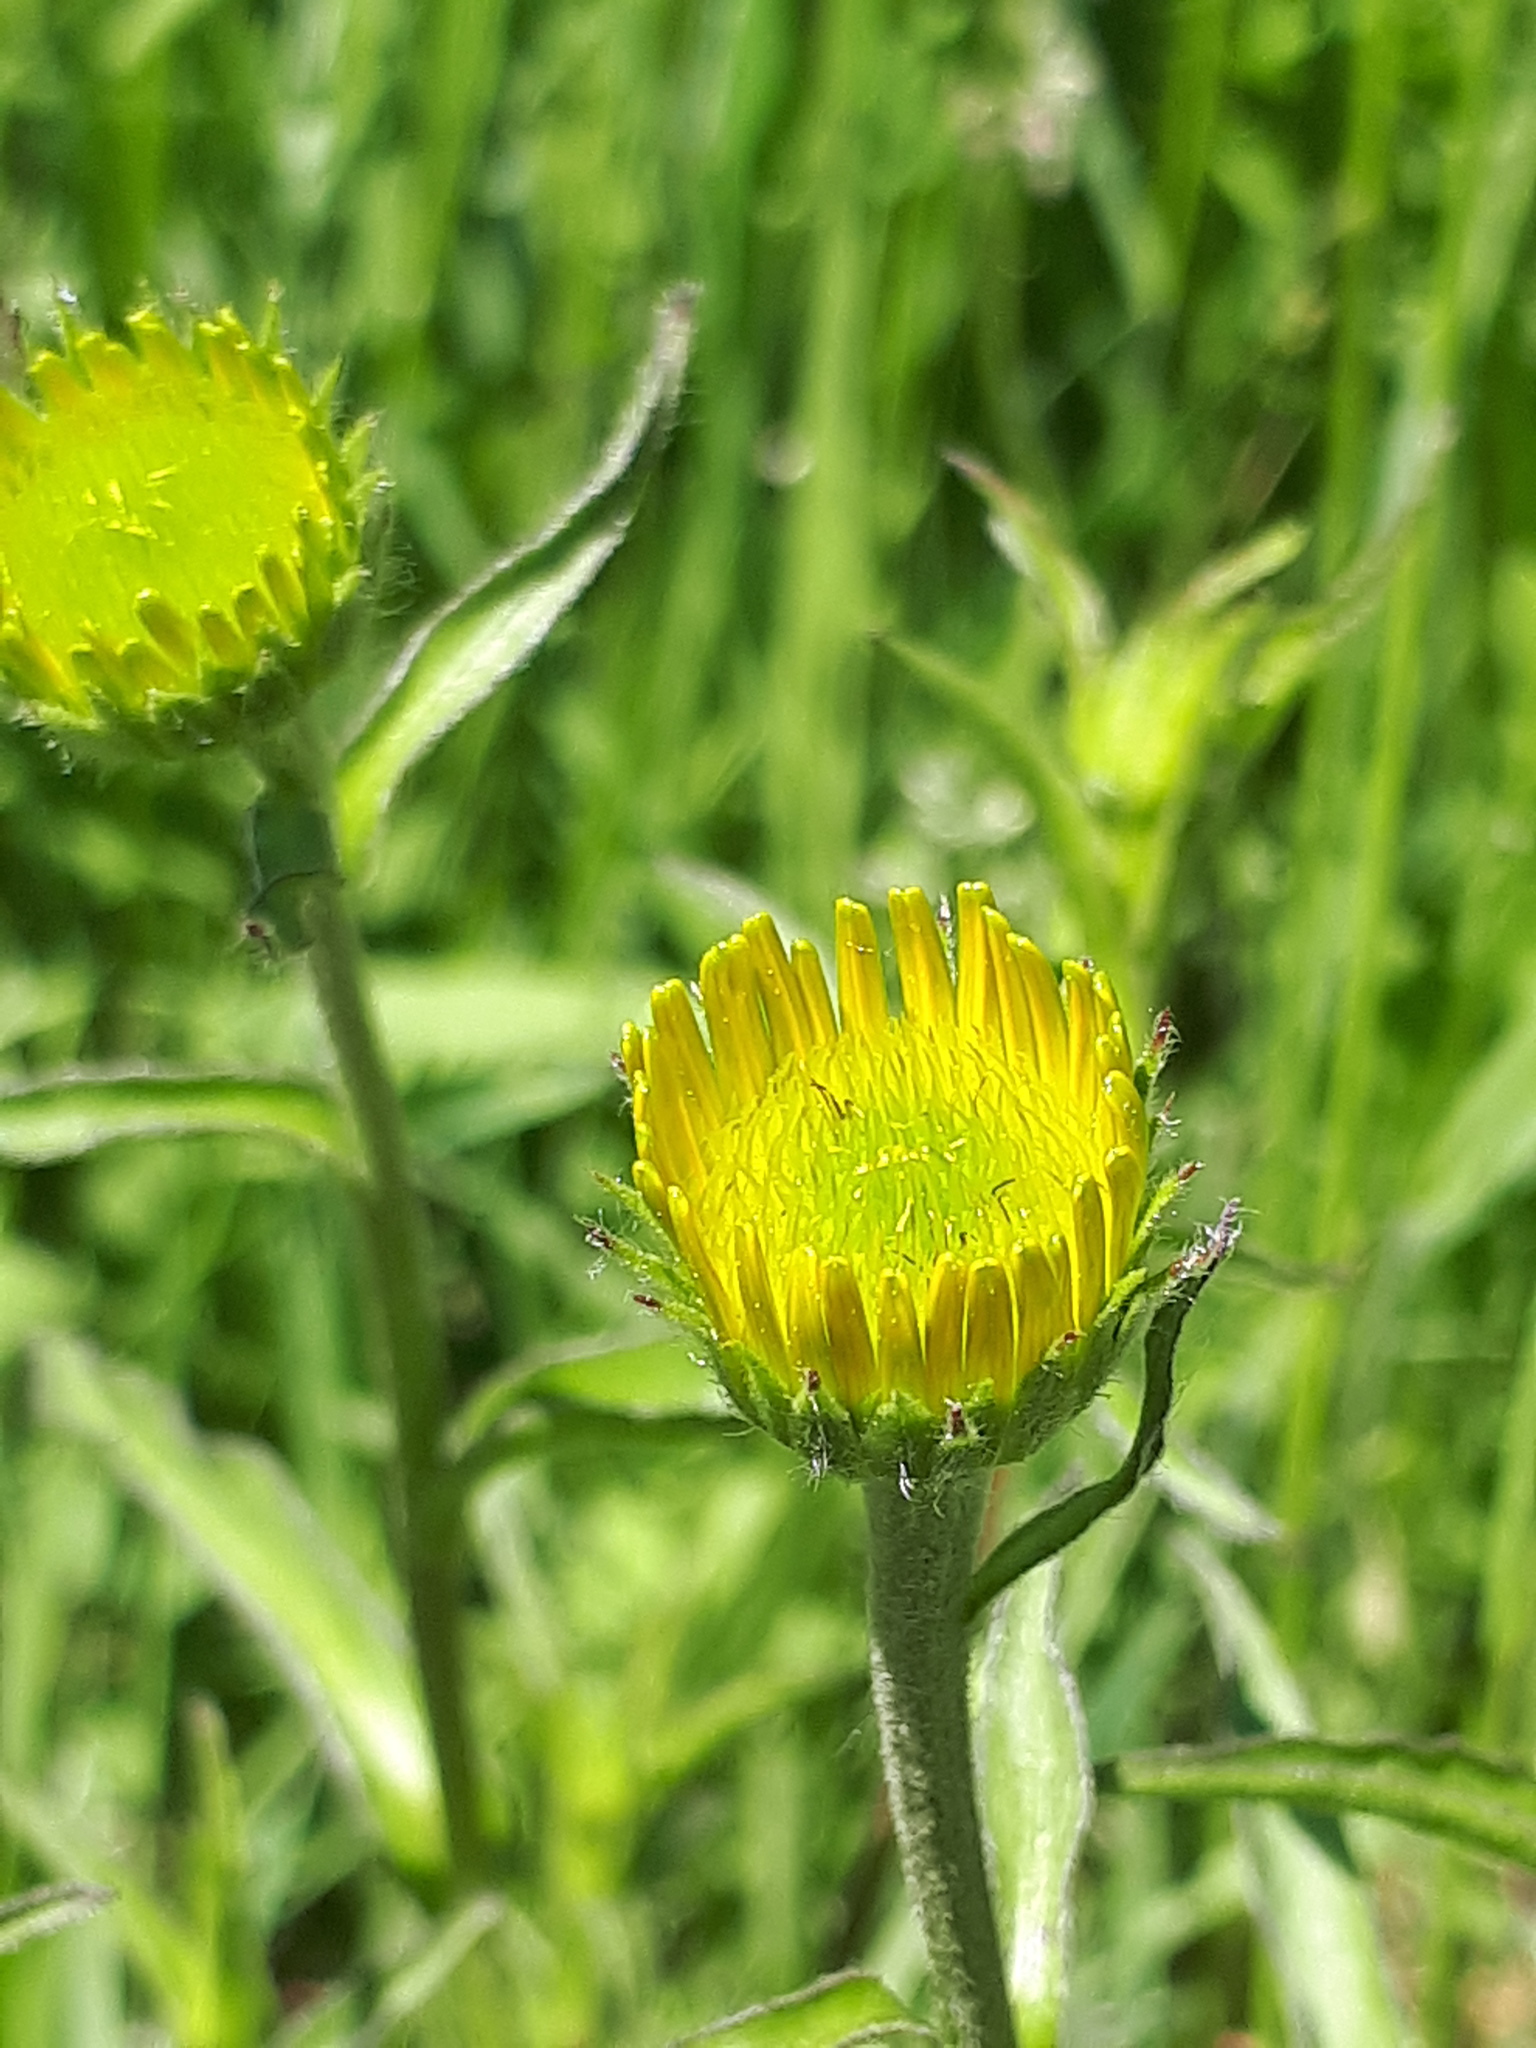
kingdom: Plantae
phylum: Tracheophyta
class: Magnoliopsida
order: Asterales
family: Asteraceae
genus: Buphthalmum
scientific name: Buphthalmum salicifolium
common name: Willow-leaved yellow-oxeye
